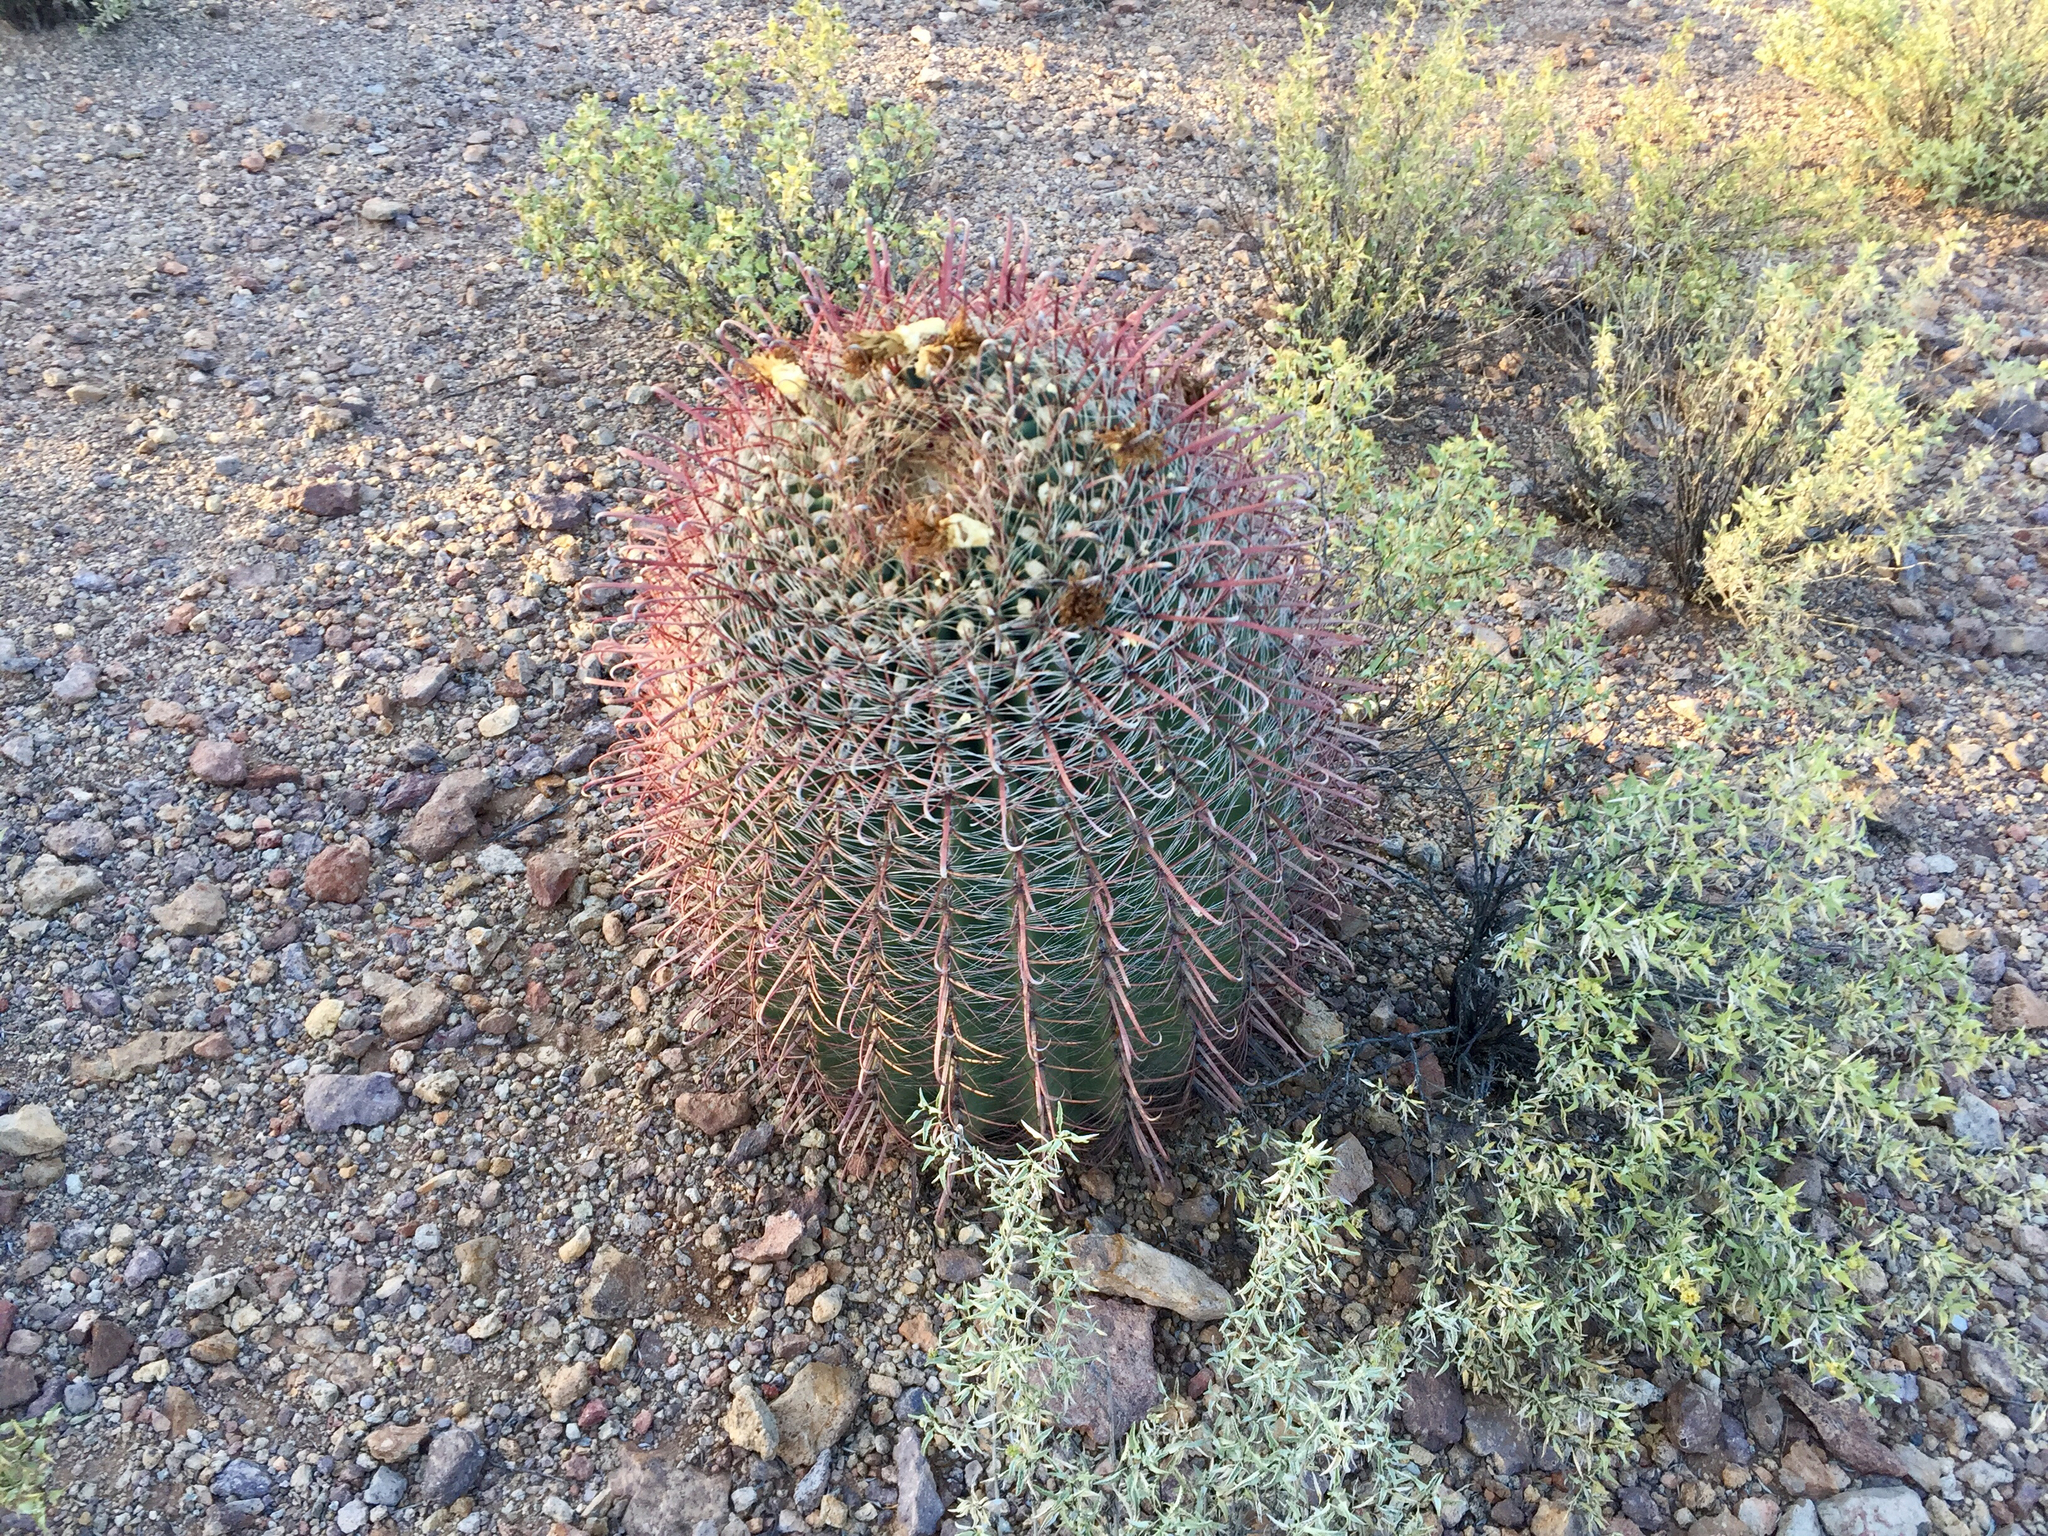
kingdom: Plantae
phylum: Tracheophyta
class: Magnoliopsida
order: Caryophyllales
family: Cactaceae
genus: Ferocactus
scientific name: Ferocactus wislizeni
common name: Candy barrel cactus
